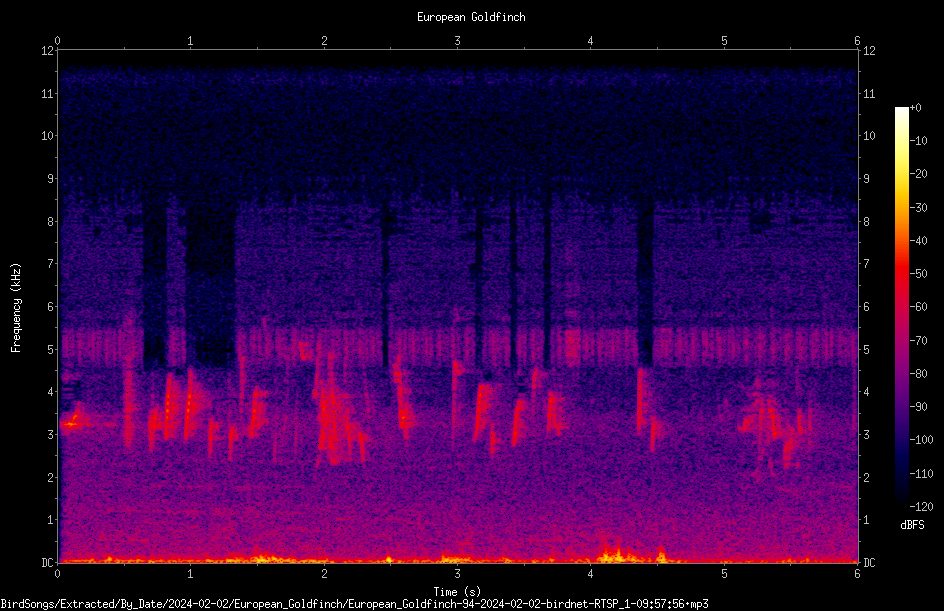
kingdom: Animalia
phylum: Chordata
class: Aves
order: Passeriformes
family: Fringillidae
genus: Carduelis
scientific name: Carduelis carduelis
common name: European goldfinch
